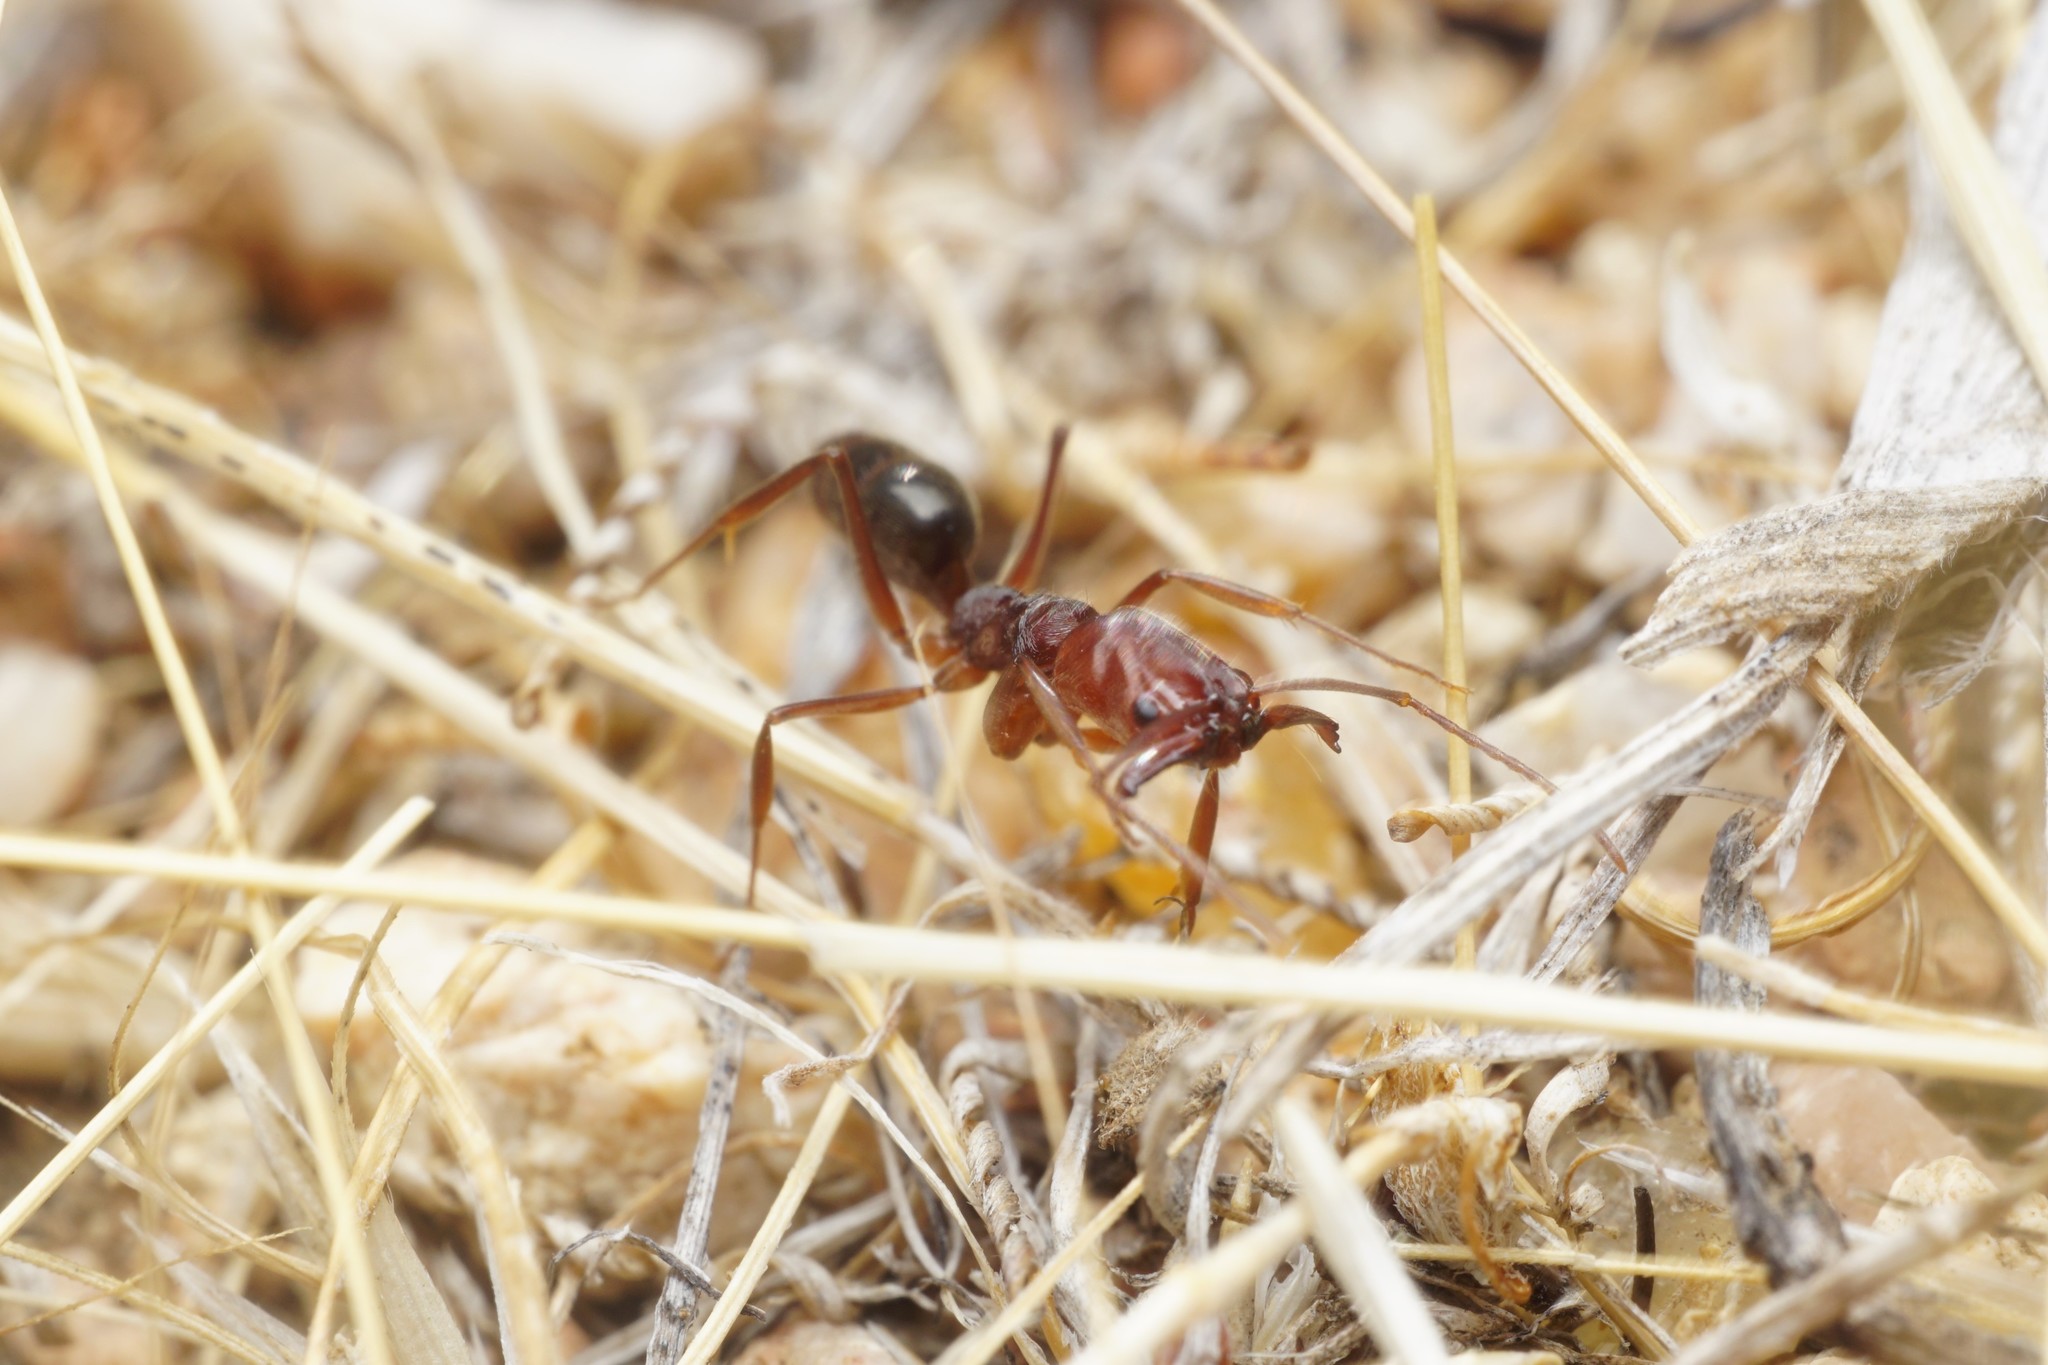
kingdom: Animalia
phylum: Arthropoda
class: Insecta
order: Hymenoptera
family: Formicidae
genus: Odontomachus
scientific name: Odontomachus
